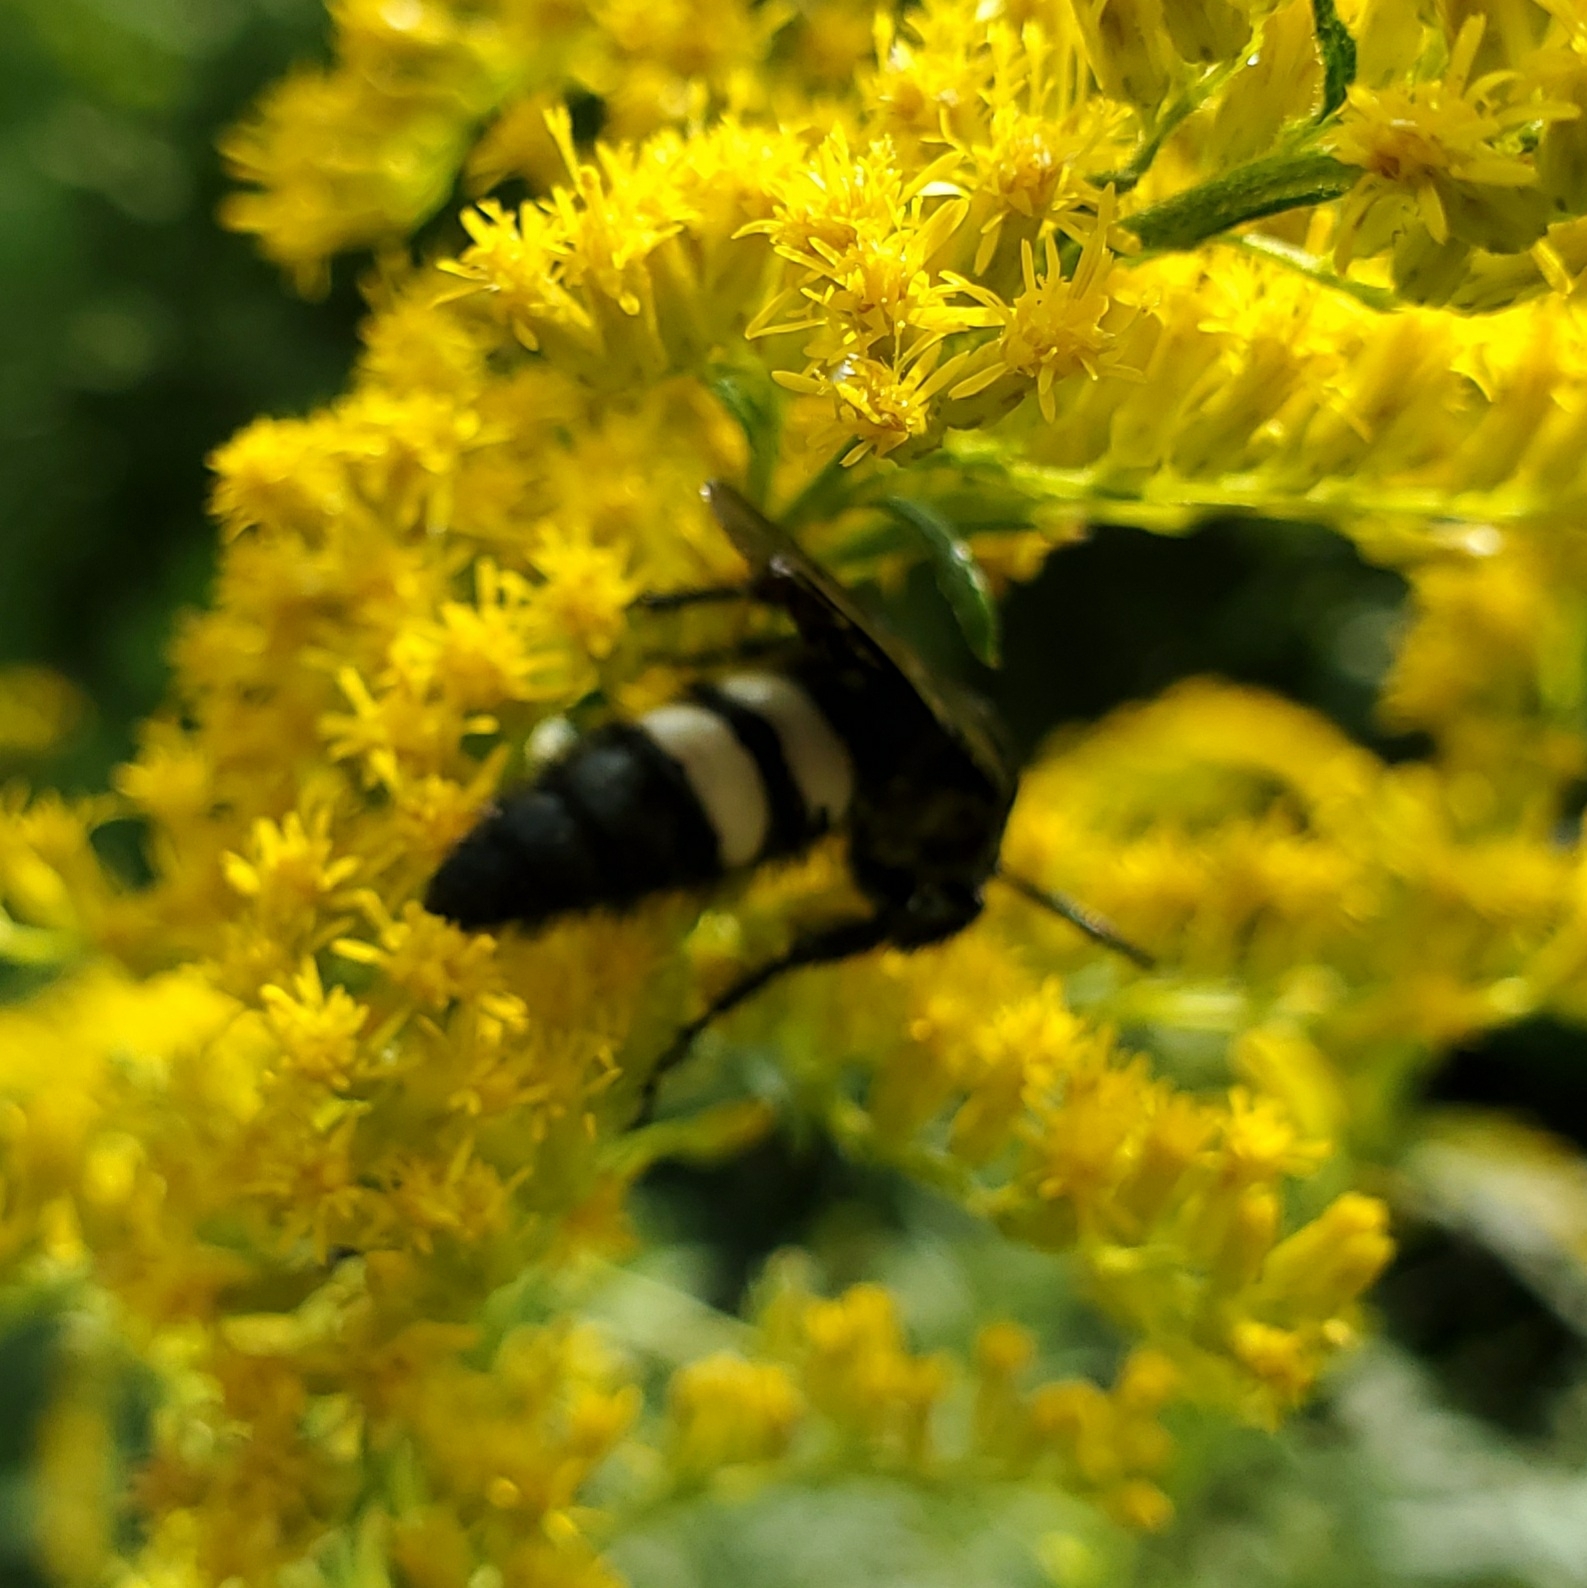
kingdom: Animalia
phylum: Arthropoda
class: Insecta
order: Hymenoptera
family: Scoliidae
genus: Scolia
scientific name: Scolia bicincta
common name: Double-banded scoliid wasp
